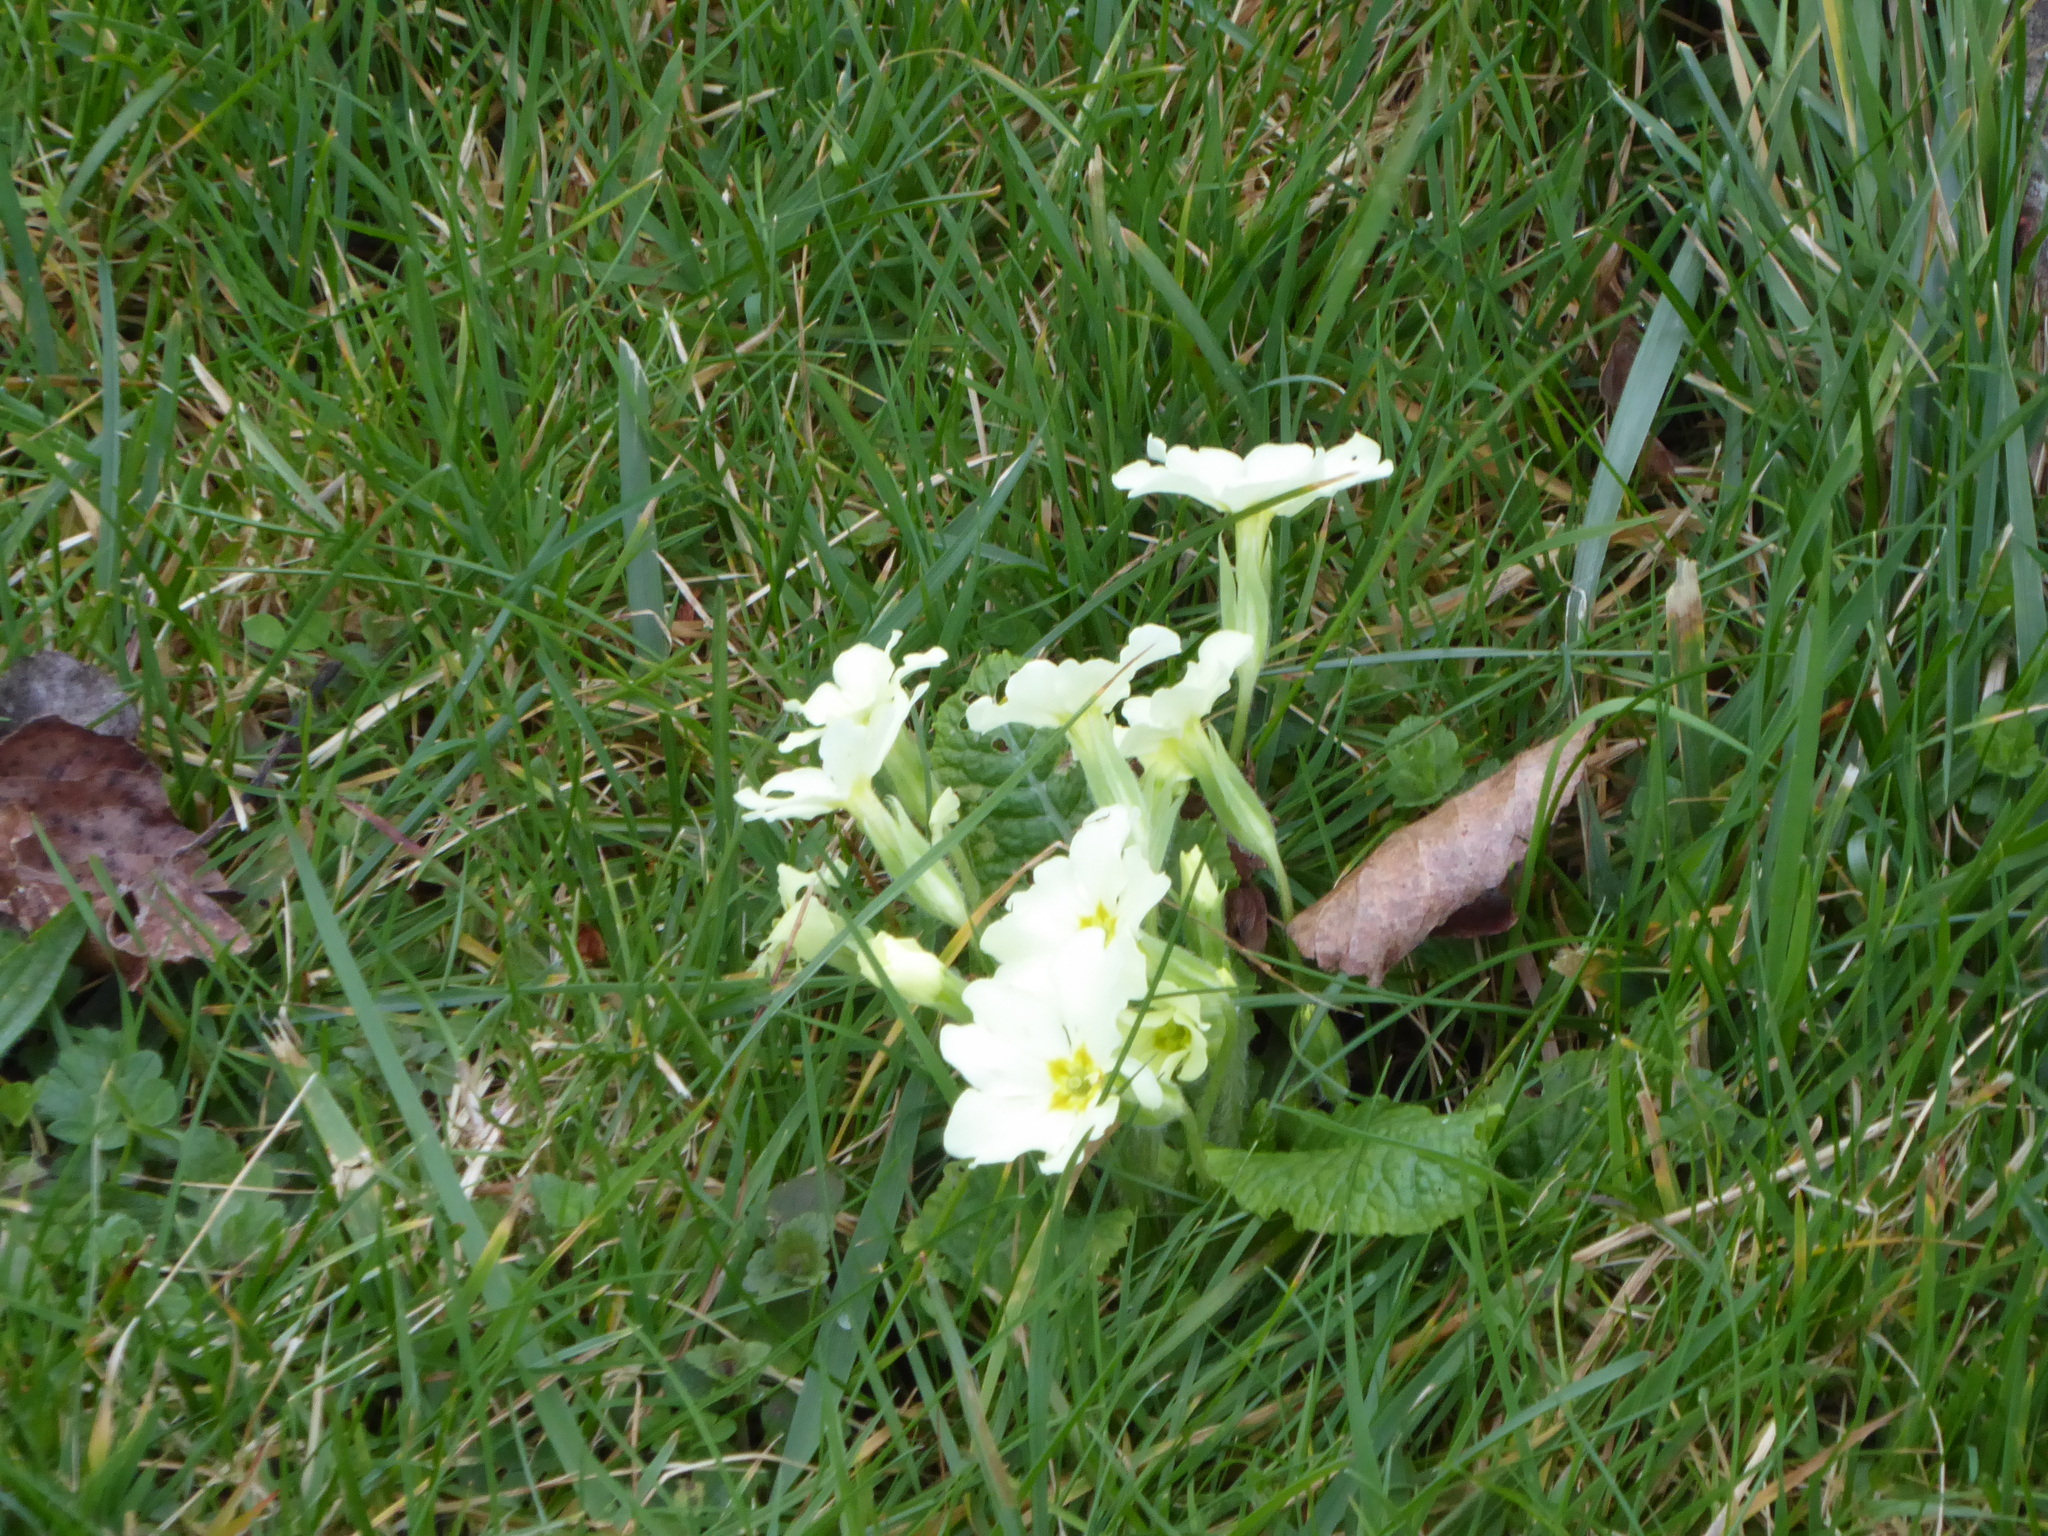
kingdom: Plantae
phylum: Tracheophyta
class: Magnoliopsida
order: Ericales
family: Primulaceae
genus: Primula
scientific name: Primula vulgaris
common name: Primrose
